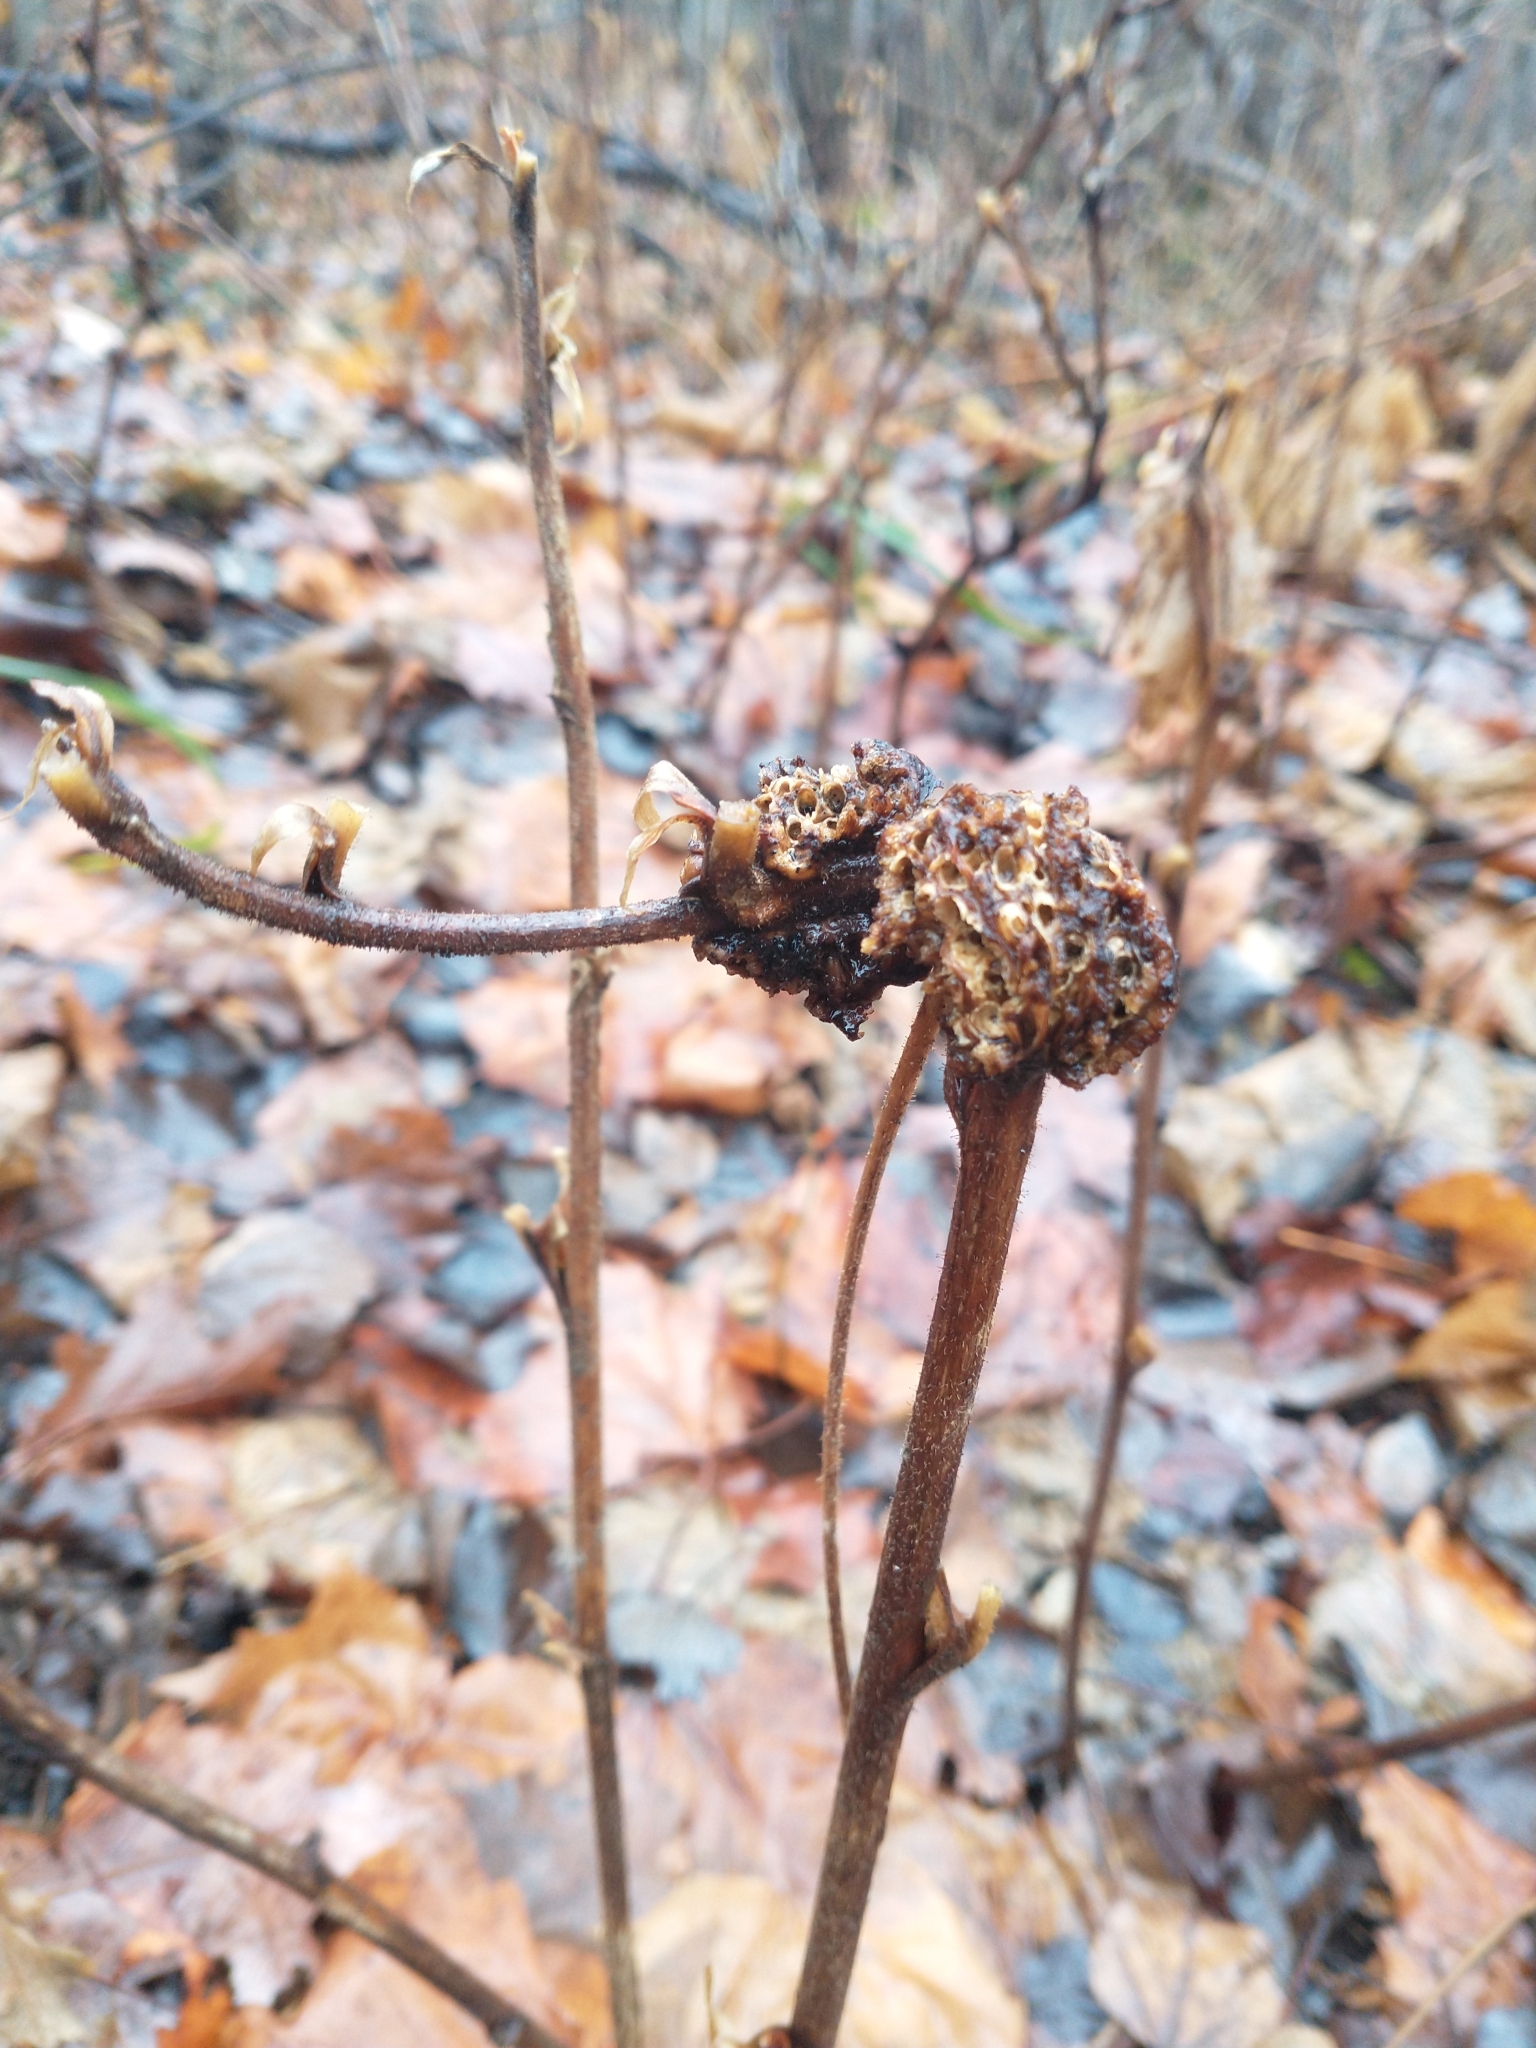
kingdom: Animalia
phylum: Arthropoda
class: Insecta
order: Hymenoptera
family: Cynipidae
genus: Diastrophus
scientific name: Diastrophus
